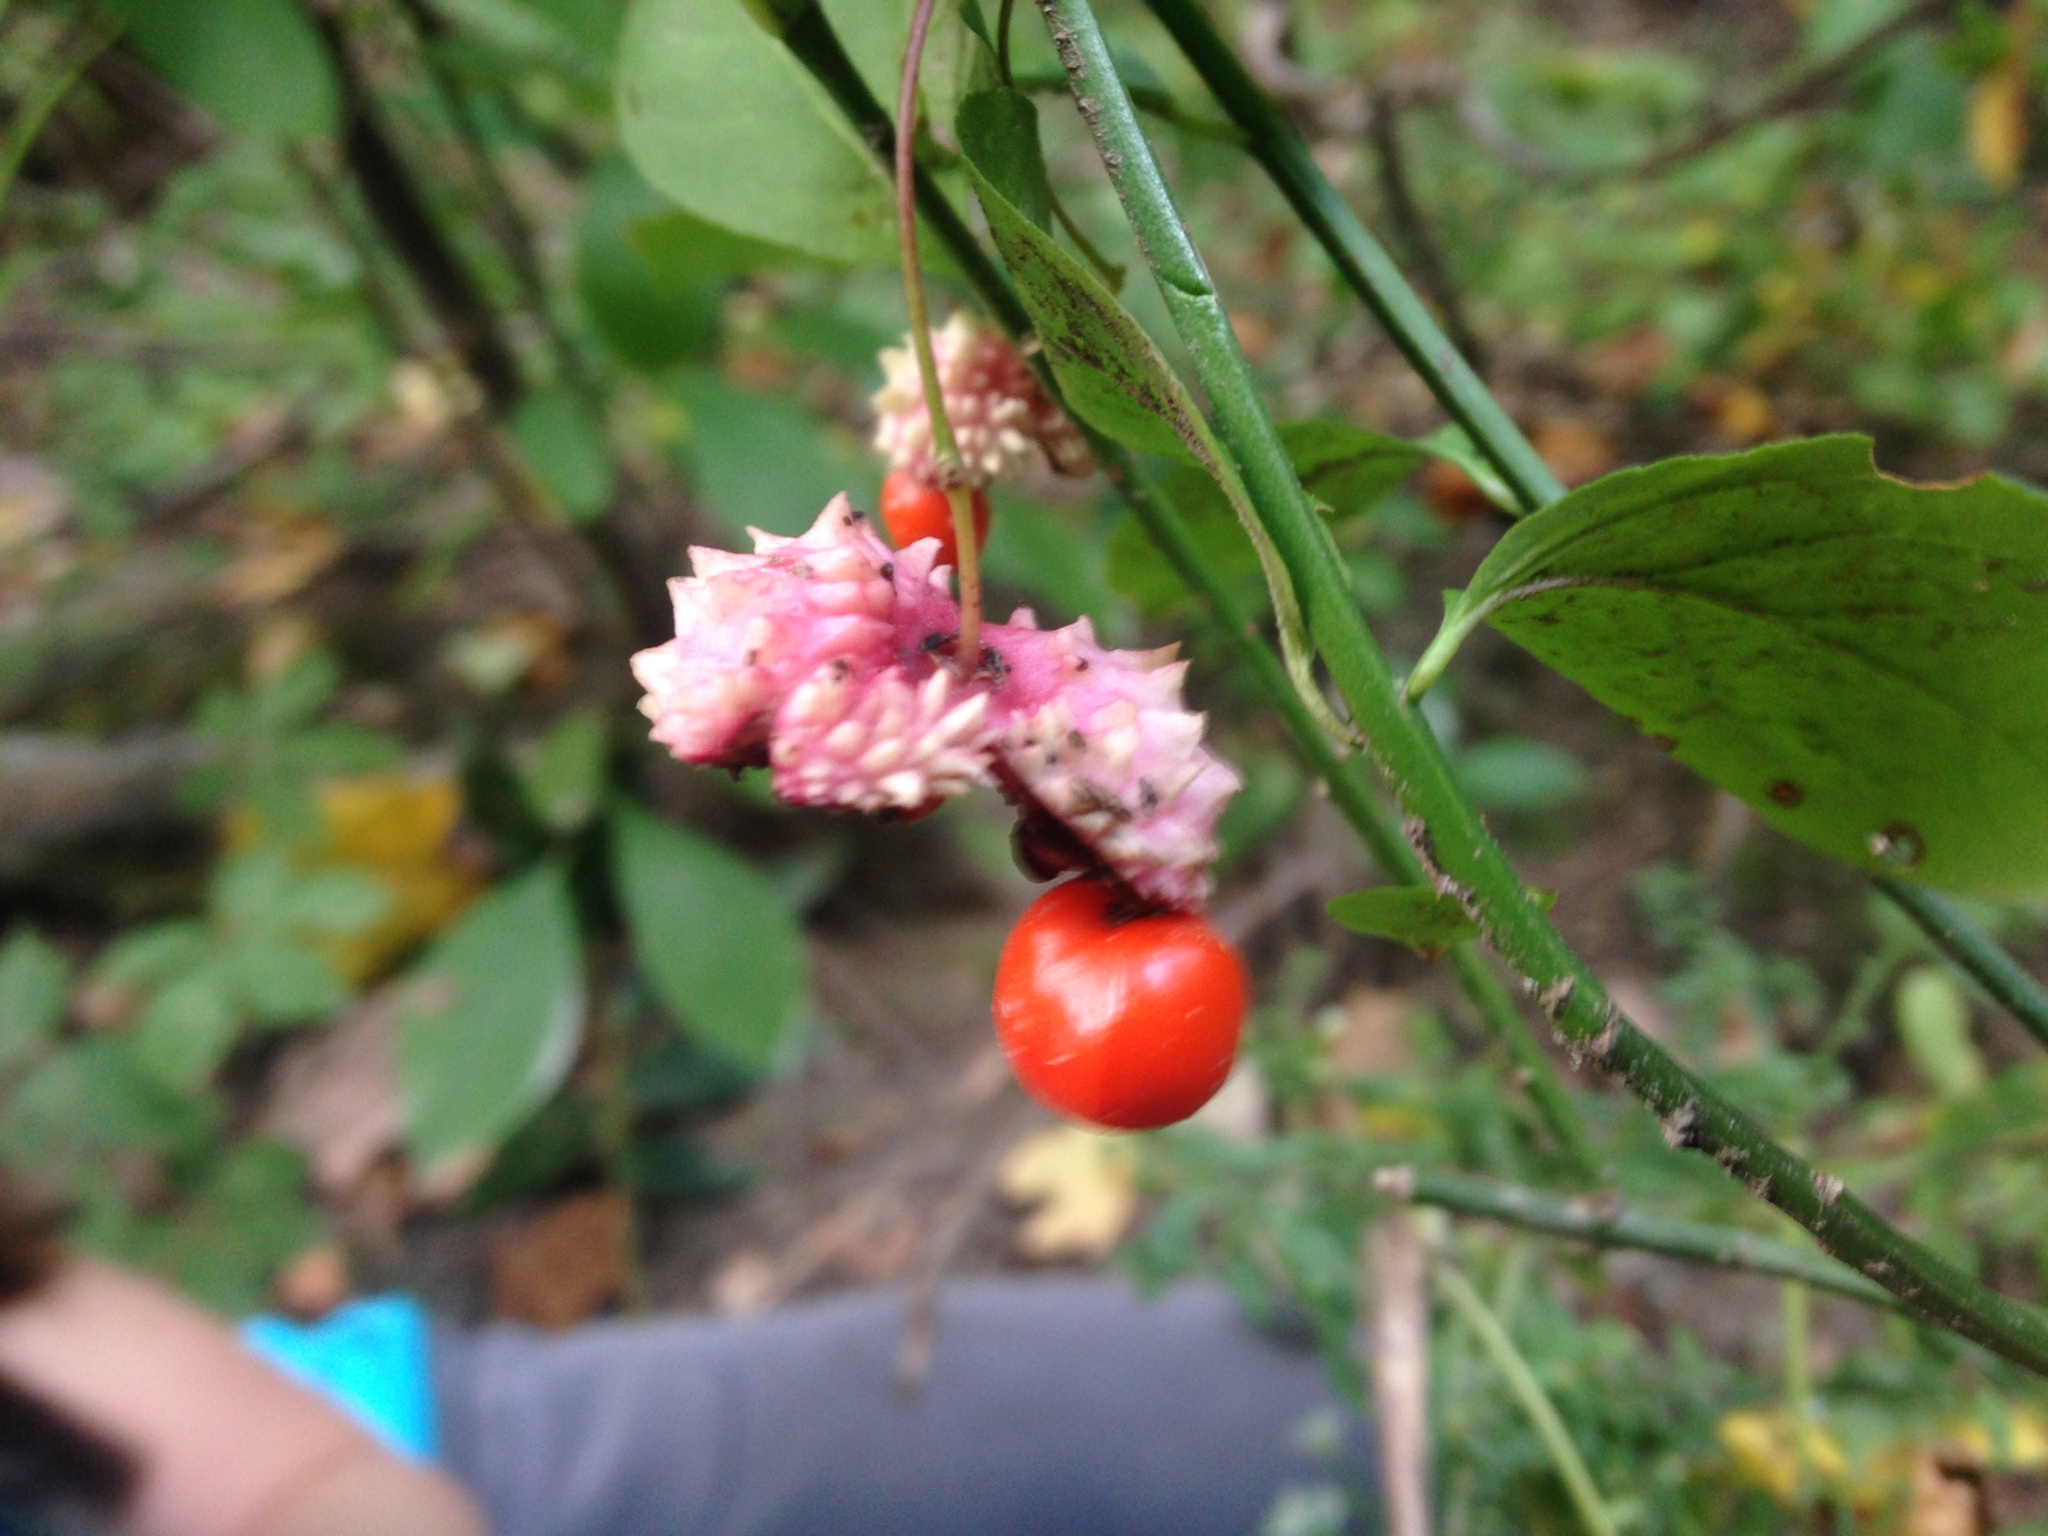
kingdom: Plantae
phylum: Tracheophyta
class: Magnoliopsida
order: Celastrales
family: Celastraceae
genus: Euonymus
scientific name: Euonymus obovatus
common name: Running strawberry-bush
